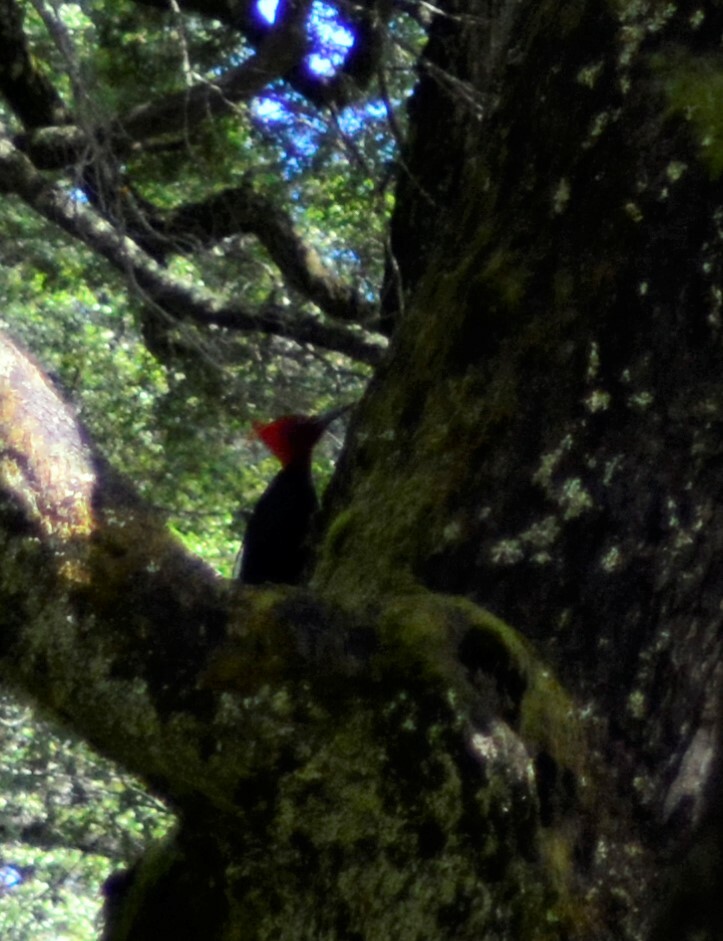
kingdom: Animalia
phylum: Chordata
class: Aves
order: Piciformes
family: Picidae
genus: Campephilus
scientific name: Campephilus magellanicus
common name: Magellanic woodpecker
